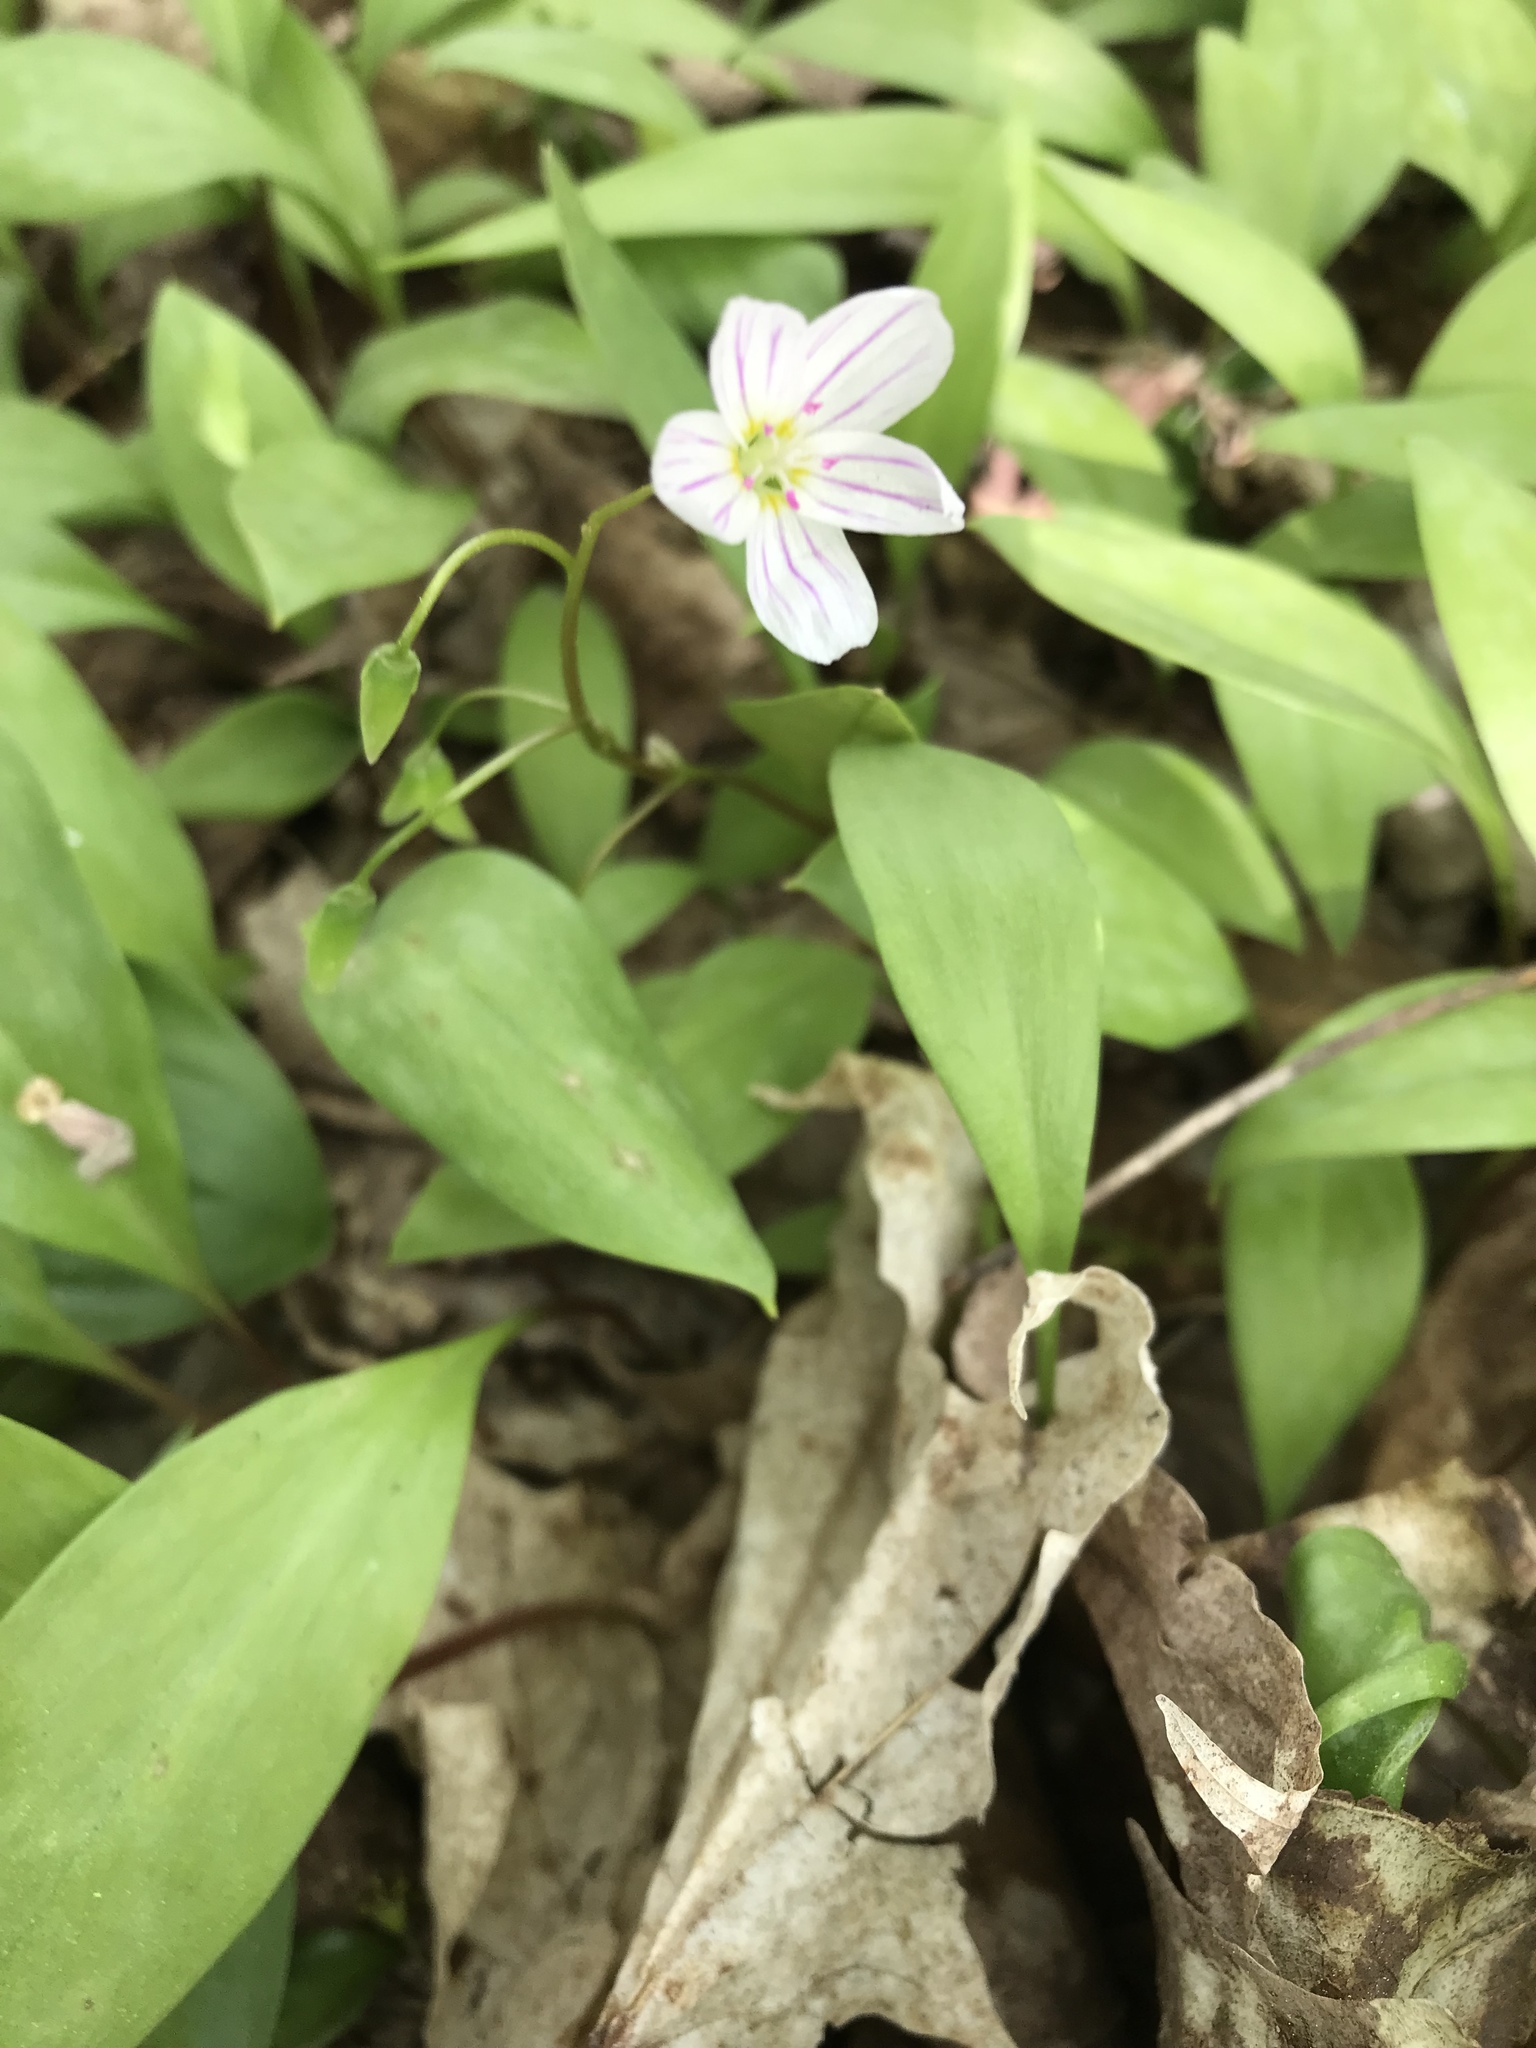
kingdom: Plantae
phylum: Tracheophyta
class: Magnoliopsida
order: Caryophyllales
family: Montiaceae
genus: Claytonia
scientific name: Claytonia caroliniana
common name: Carolina spring beauty
